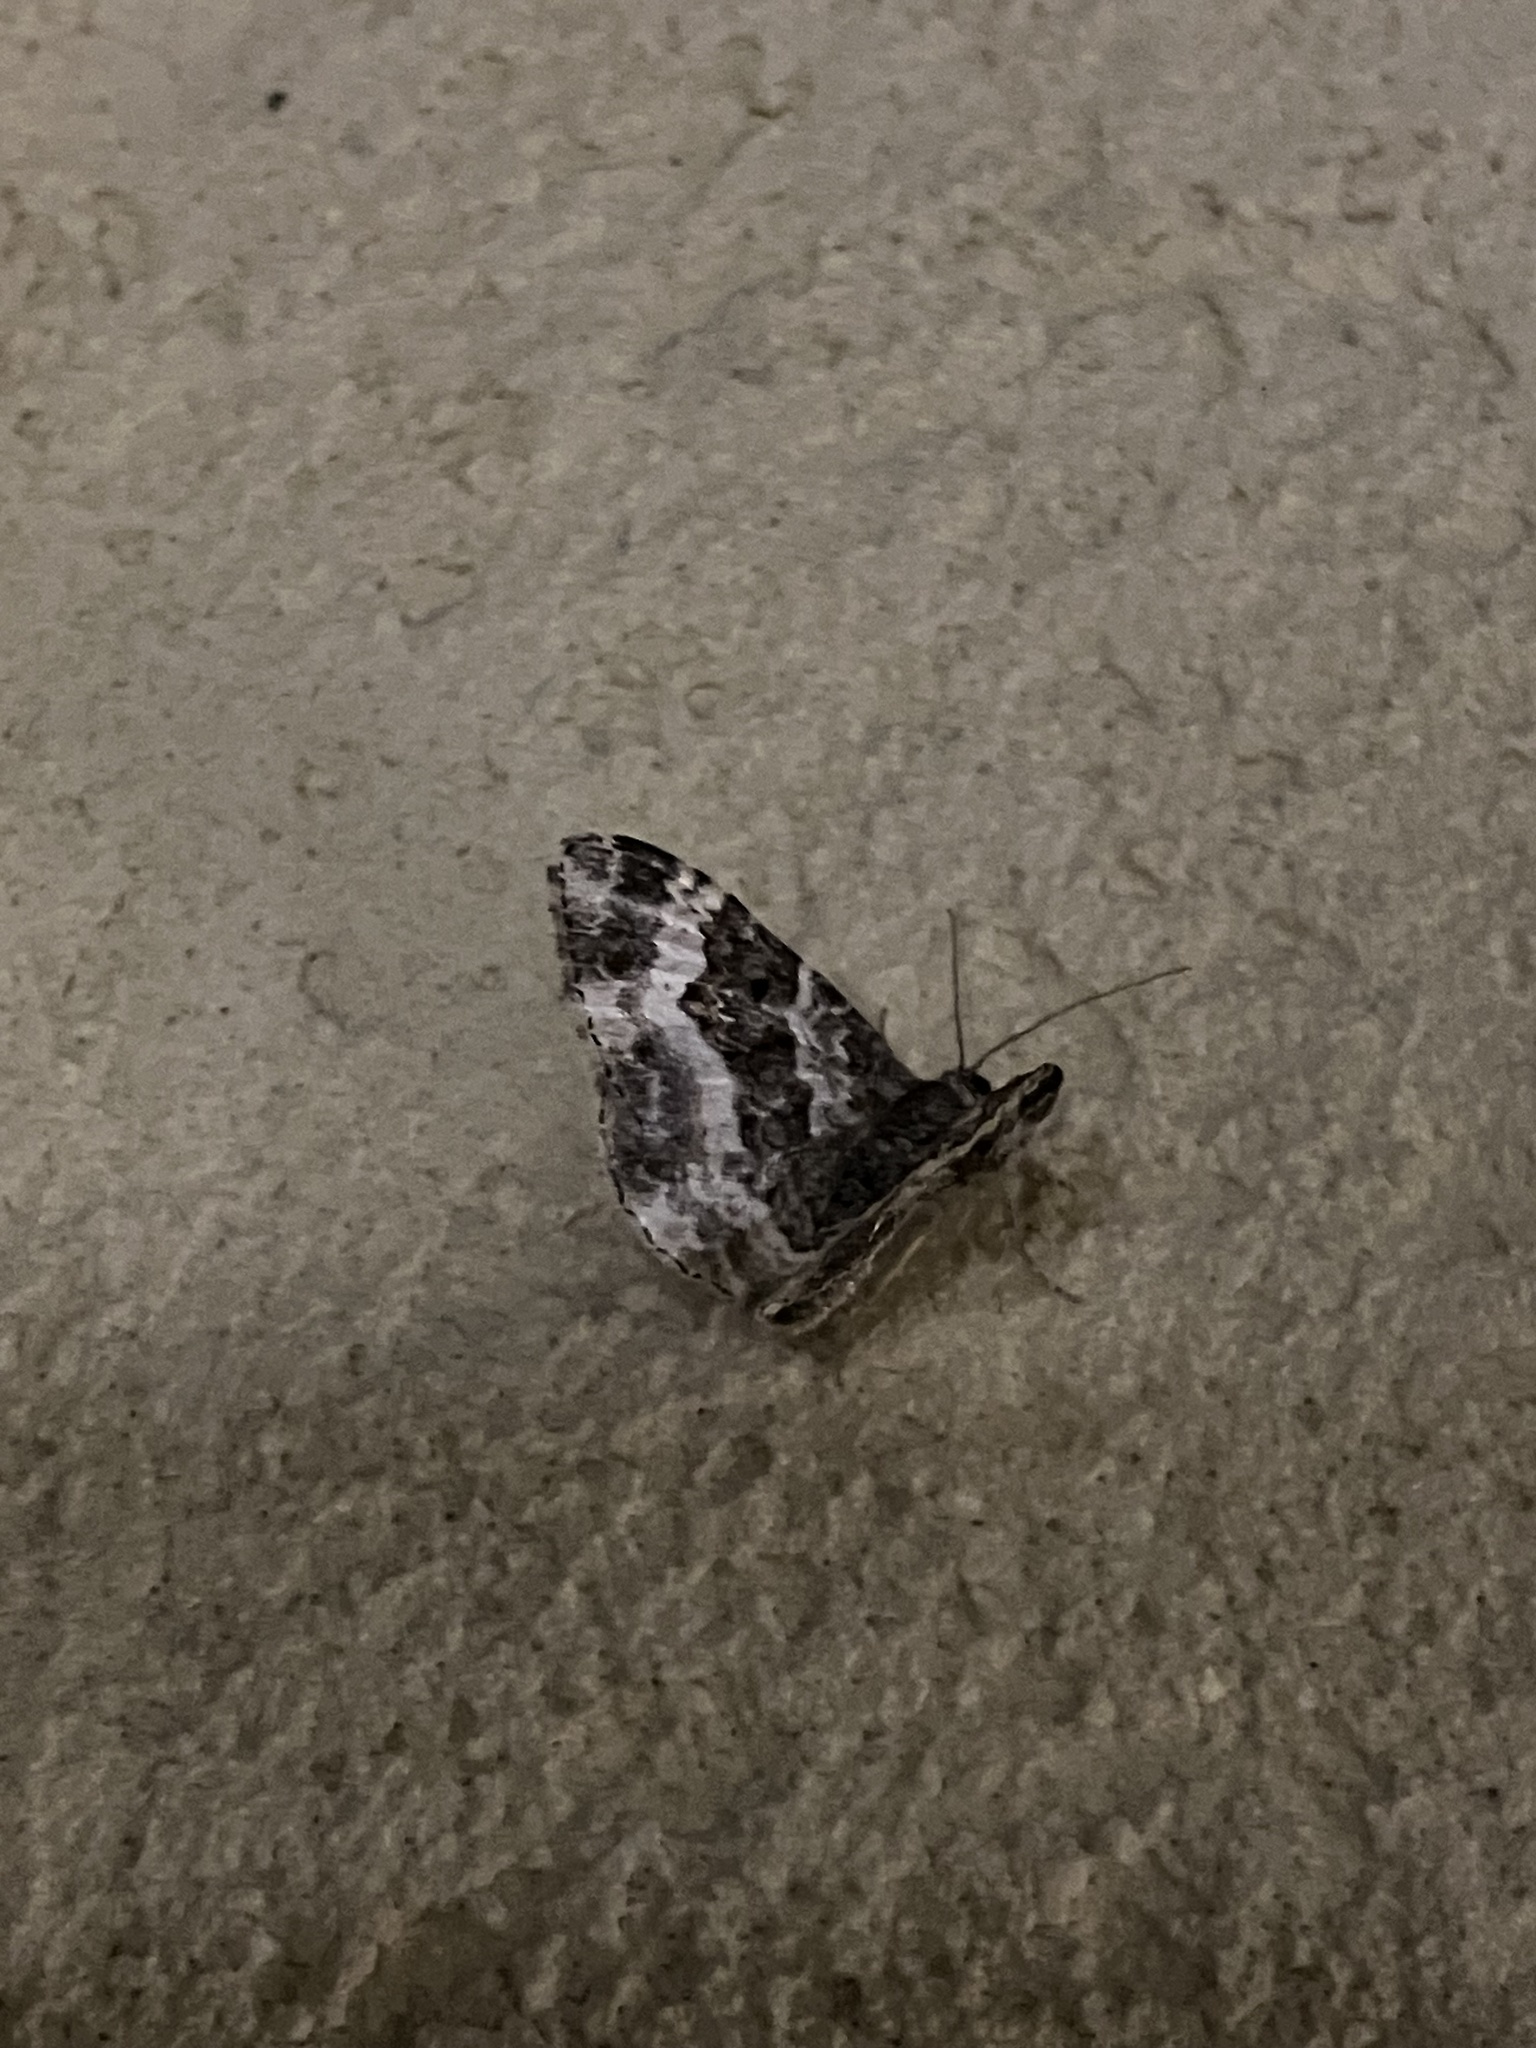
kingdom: Animalia
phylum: Arthropoda
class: Insecta
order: Lepidoptera
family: Geometridae
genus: Epirrhoe
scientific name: Epirrhoe alternata
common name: Common carpet
